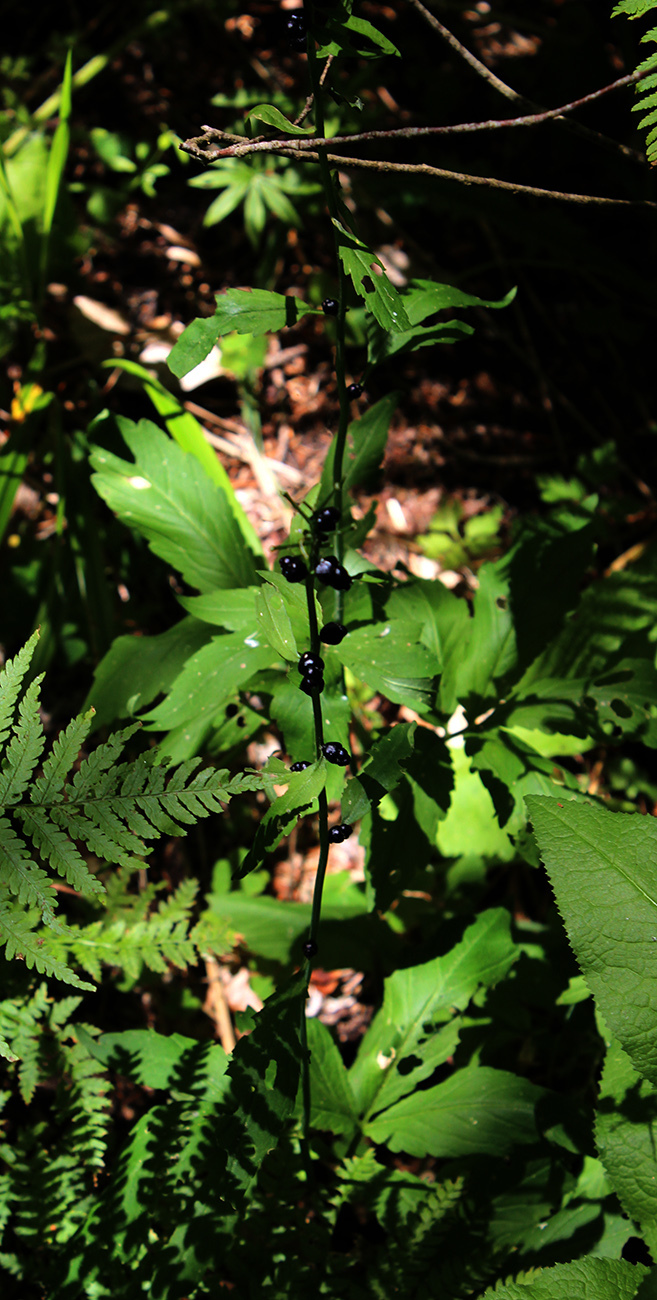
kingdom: Plantae
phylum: Tracheophyta
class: Magnoliopsida
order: Brassicales
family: Brassicaceae
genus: Cardamine
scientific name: Cardamine bulbifera
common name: Coralroot bittercress
